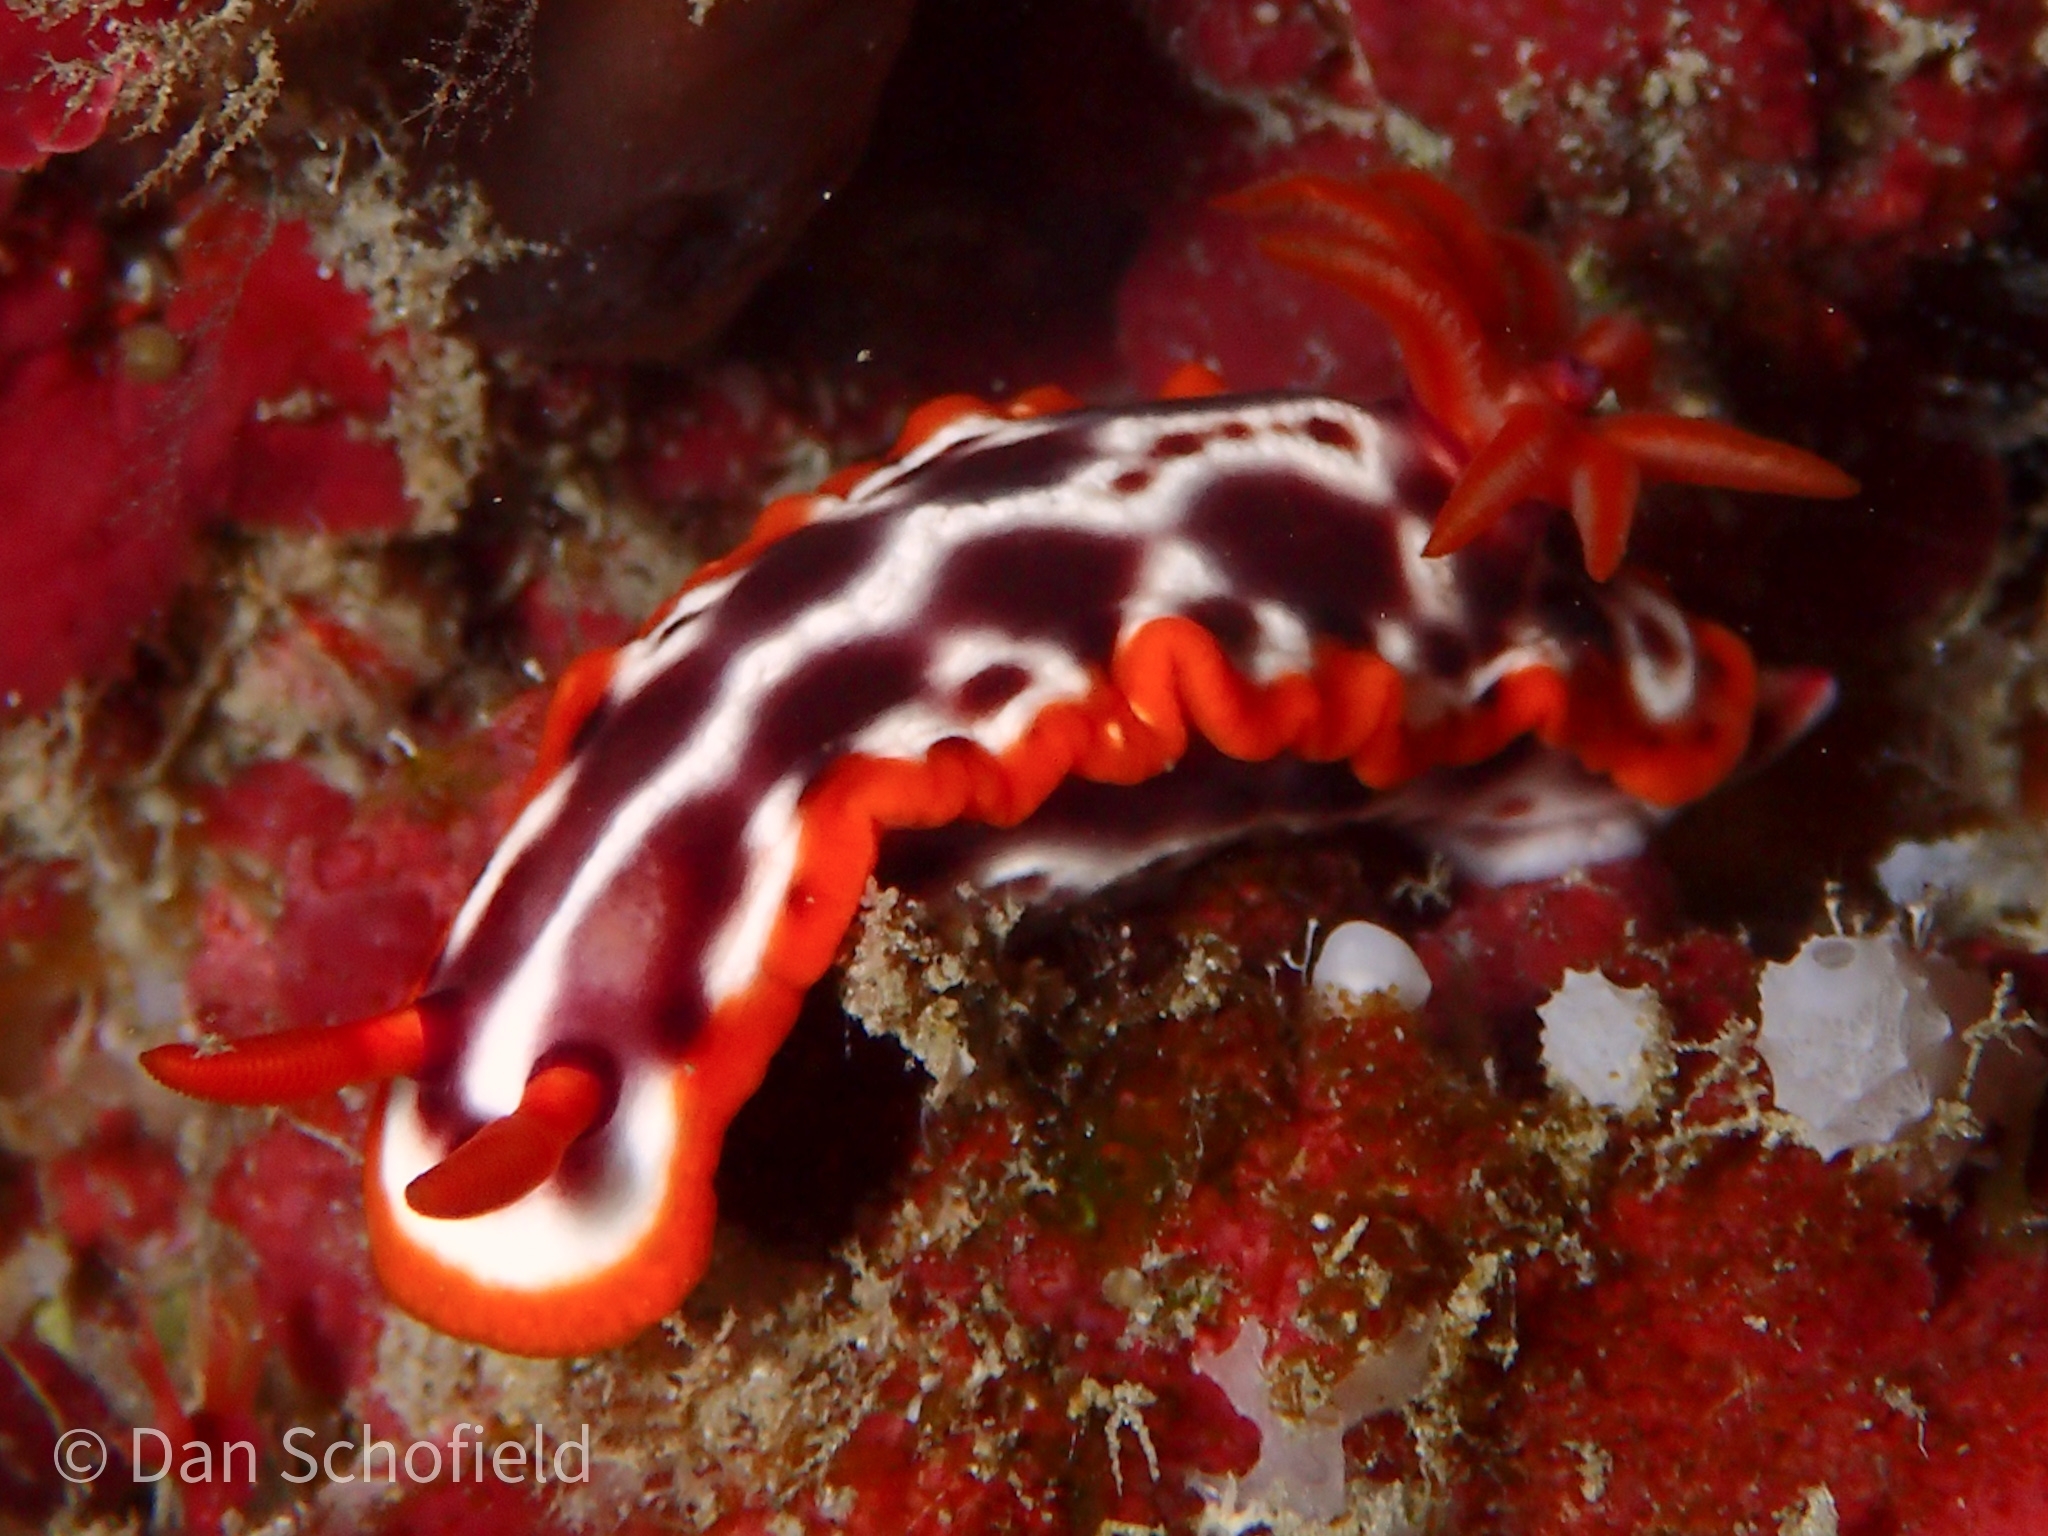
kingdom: Animalia
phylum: Mollusca
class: Gastropoda
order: Nudibranchia
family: Chromodorididae
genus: Hypselodoris
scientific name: Hypselodoris purpureomaculosa
